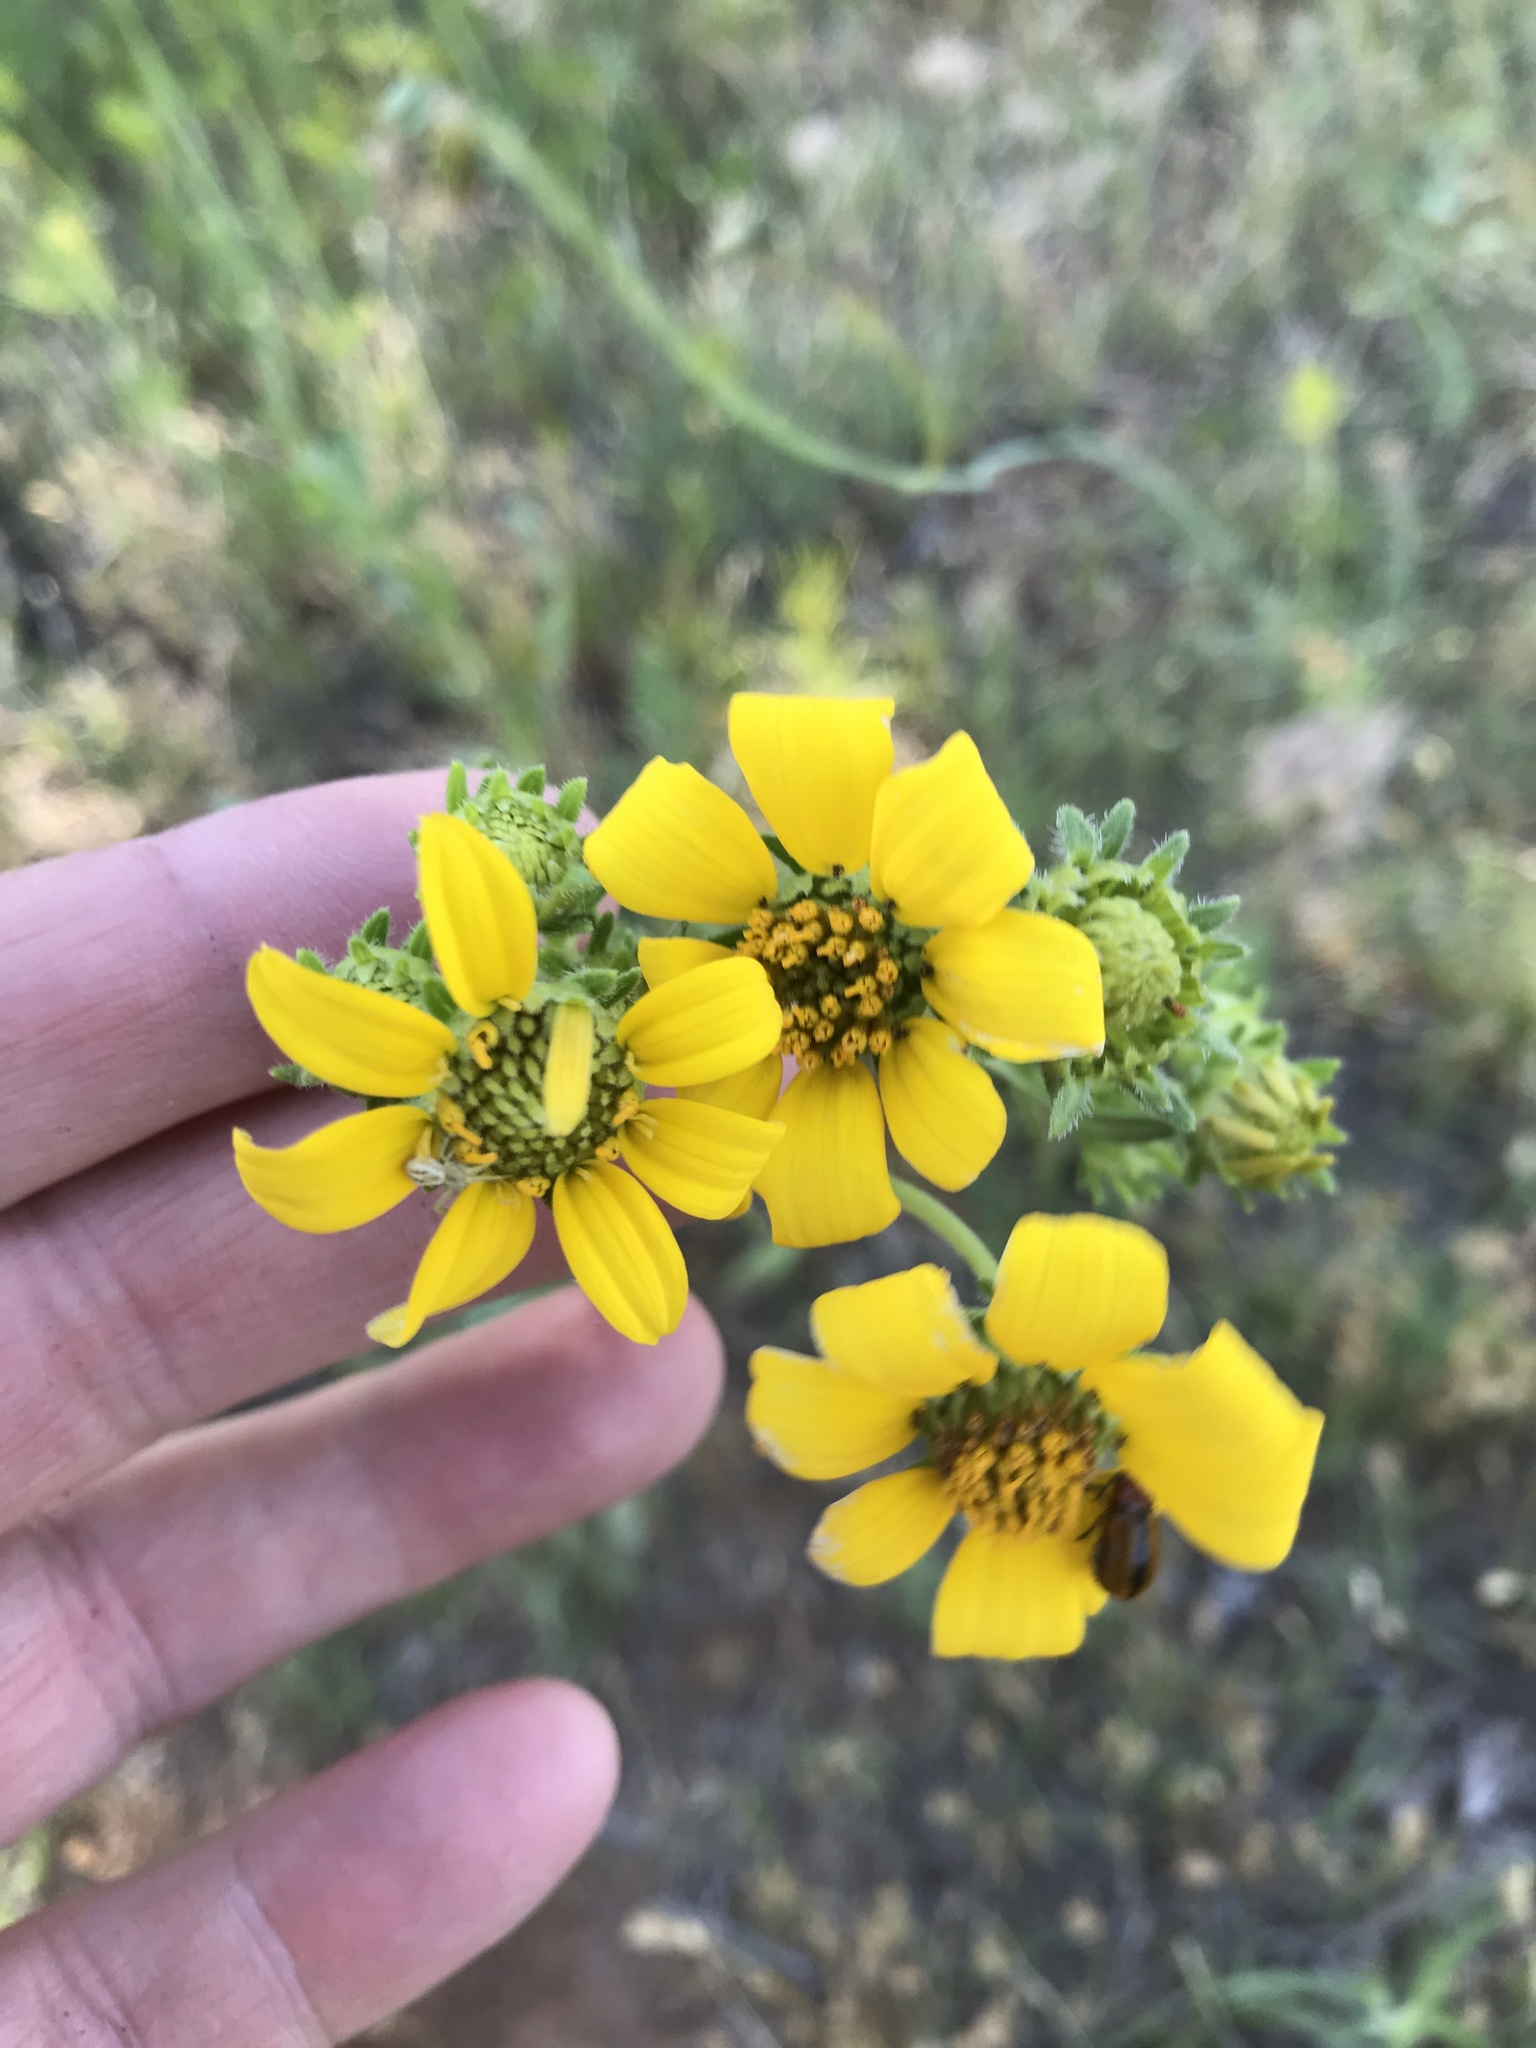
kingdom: Plantae
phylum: Tracheophyta
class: Magnoliopsida
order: Asterales
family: Asteraceae
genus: Engelmannia
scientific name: Engelmannia peristenia
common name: Engelmann's daisy
